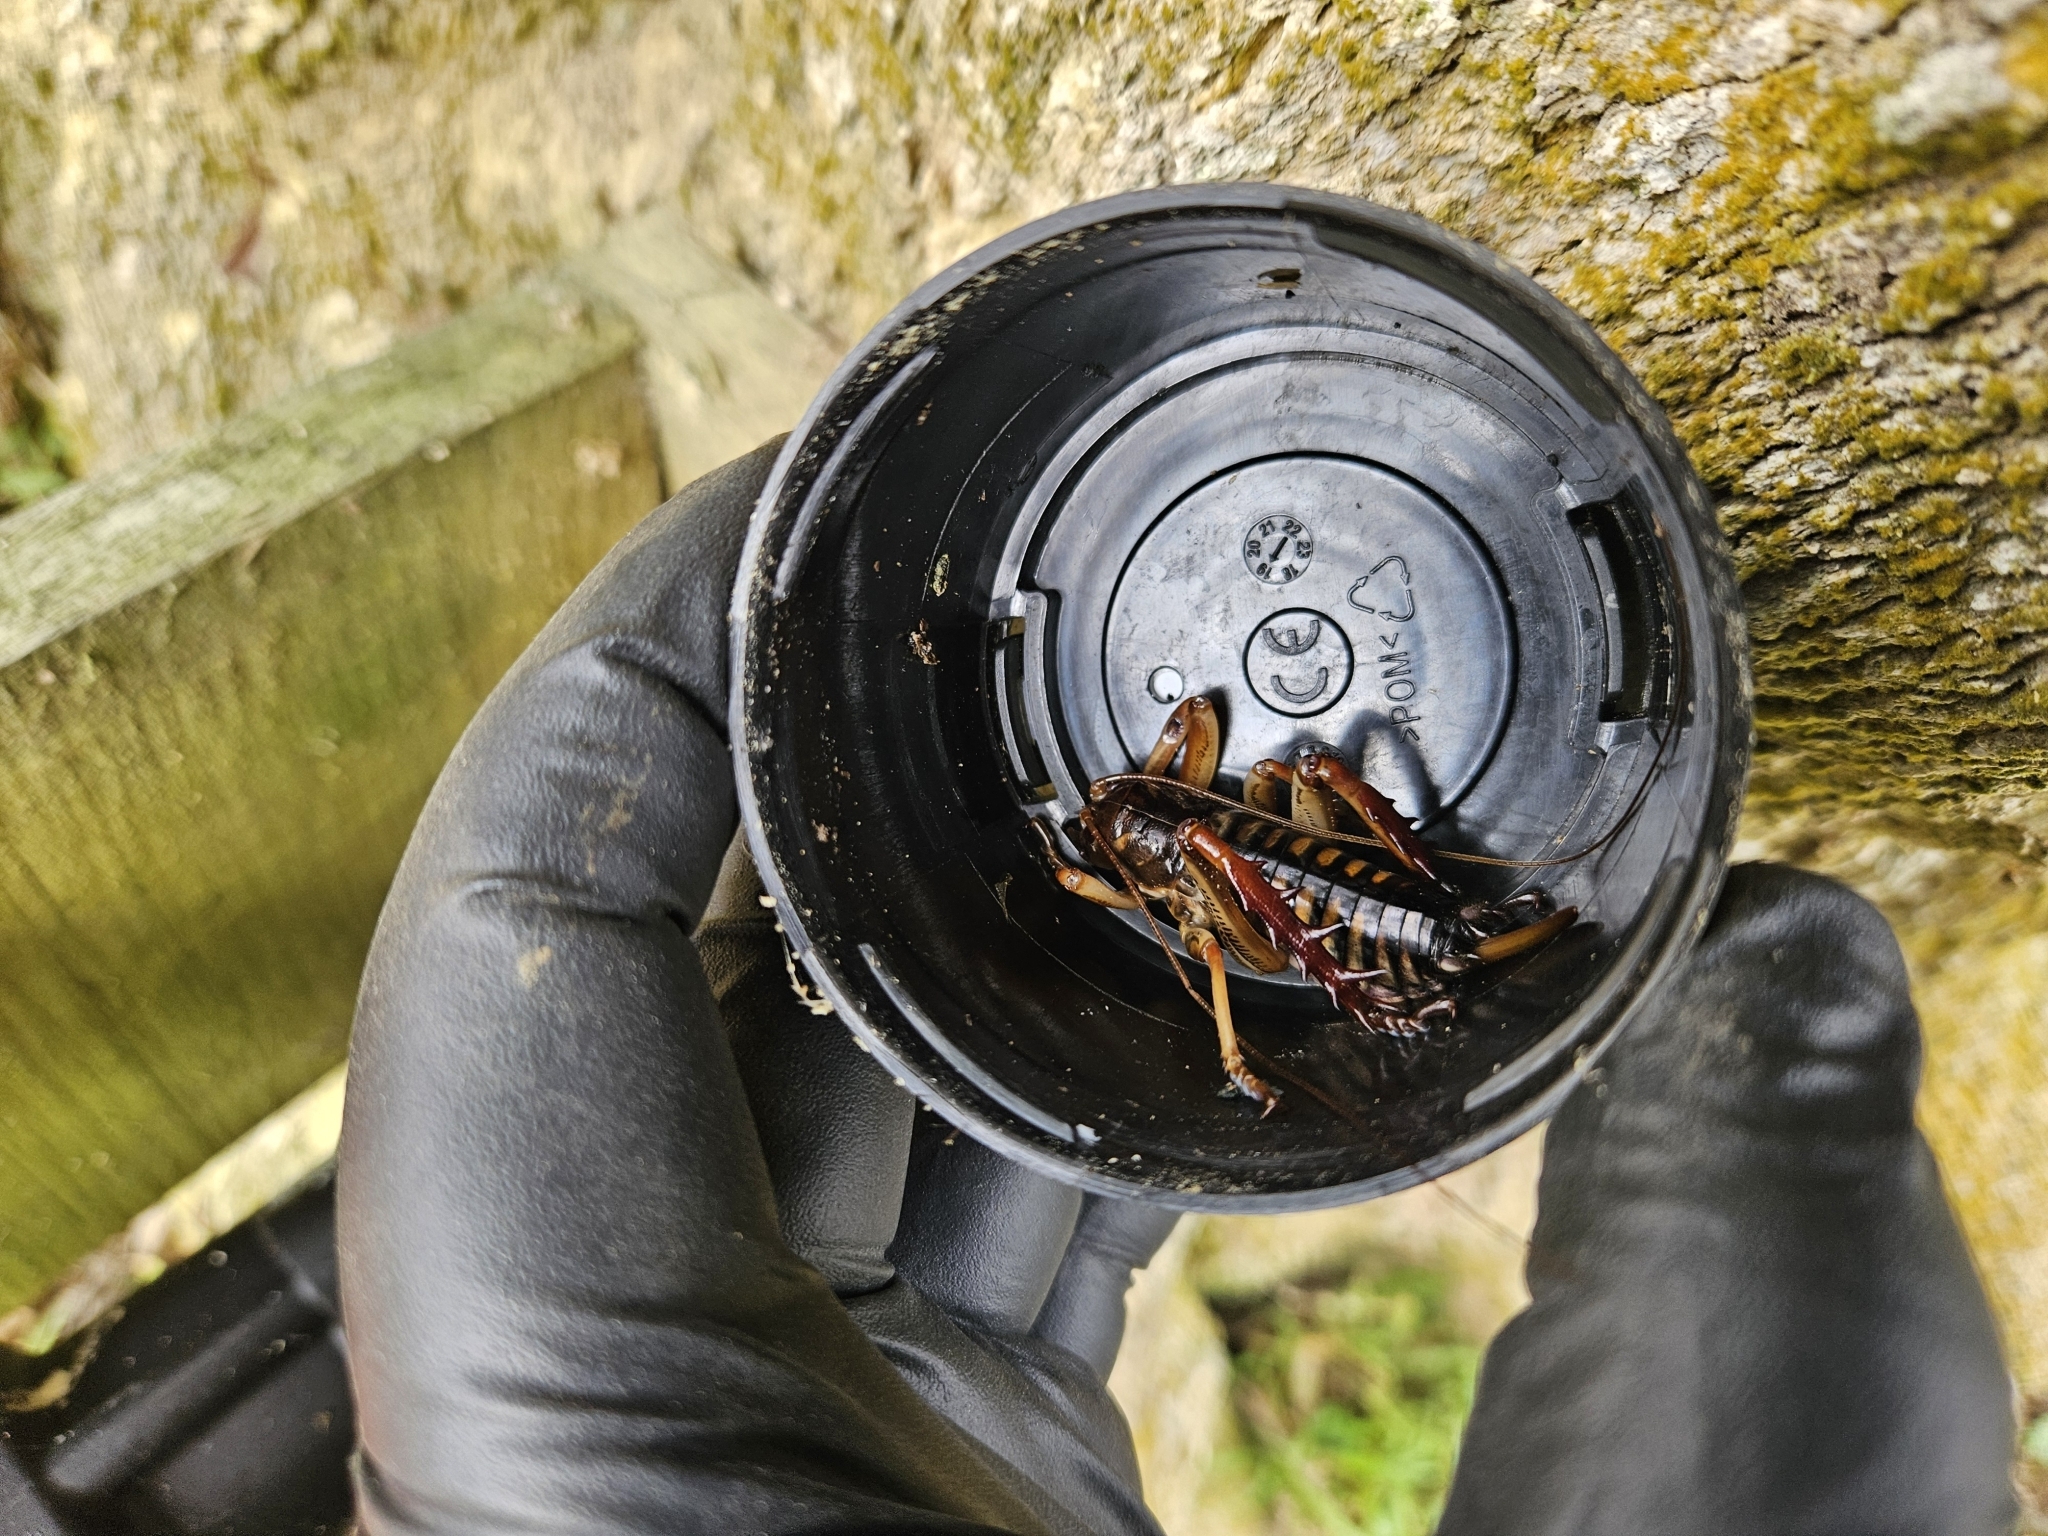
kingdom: Animalia
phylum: Arthropoda
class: Insecta
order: Orthoptera
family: Anostostomatidae
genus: Hemideina
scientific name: Hemideina crassidens
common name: Wellington tree weta
